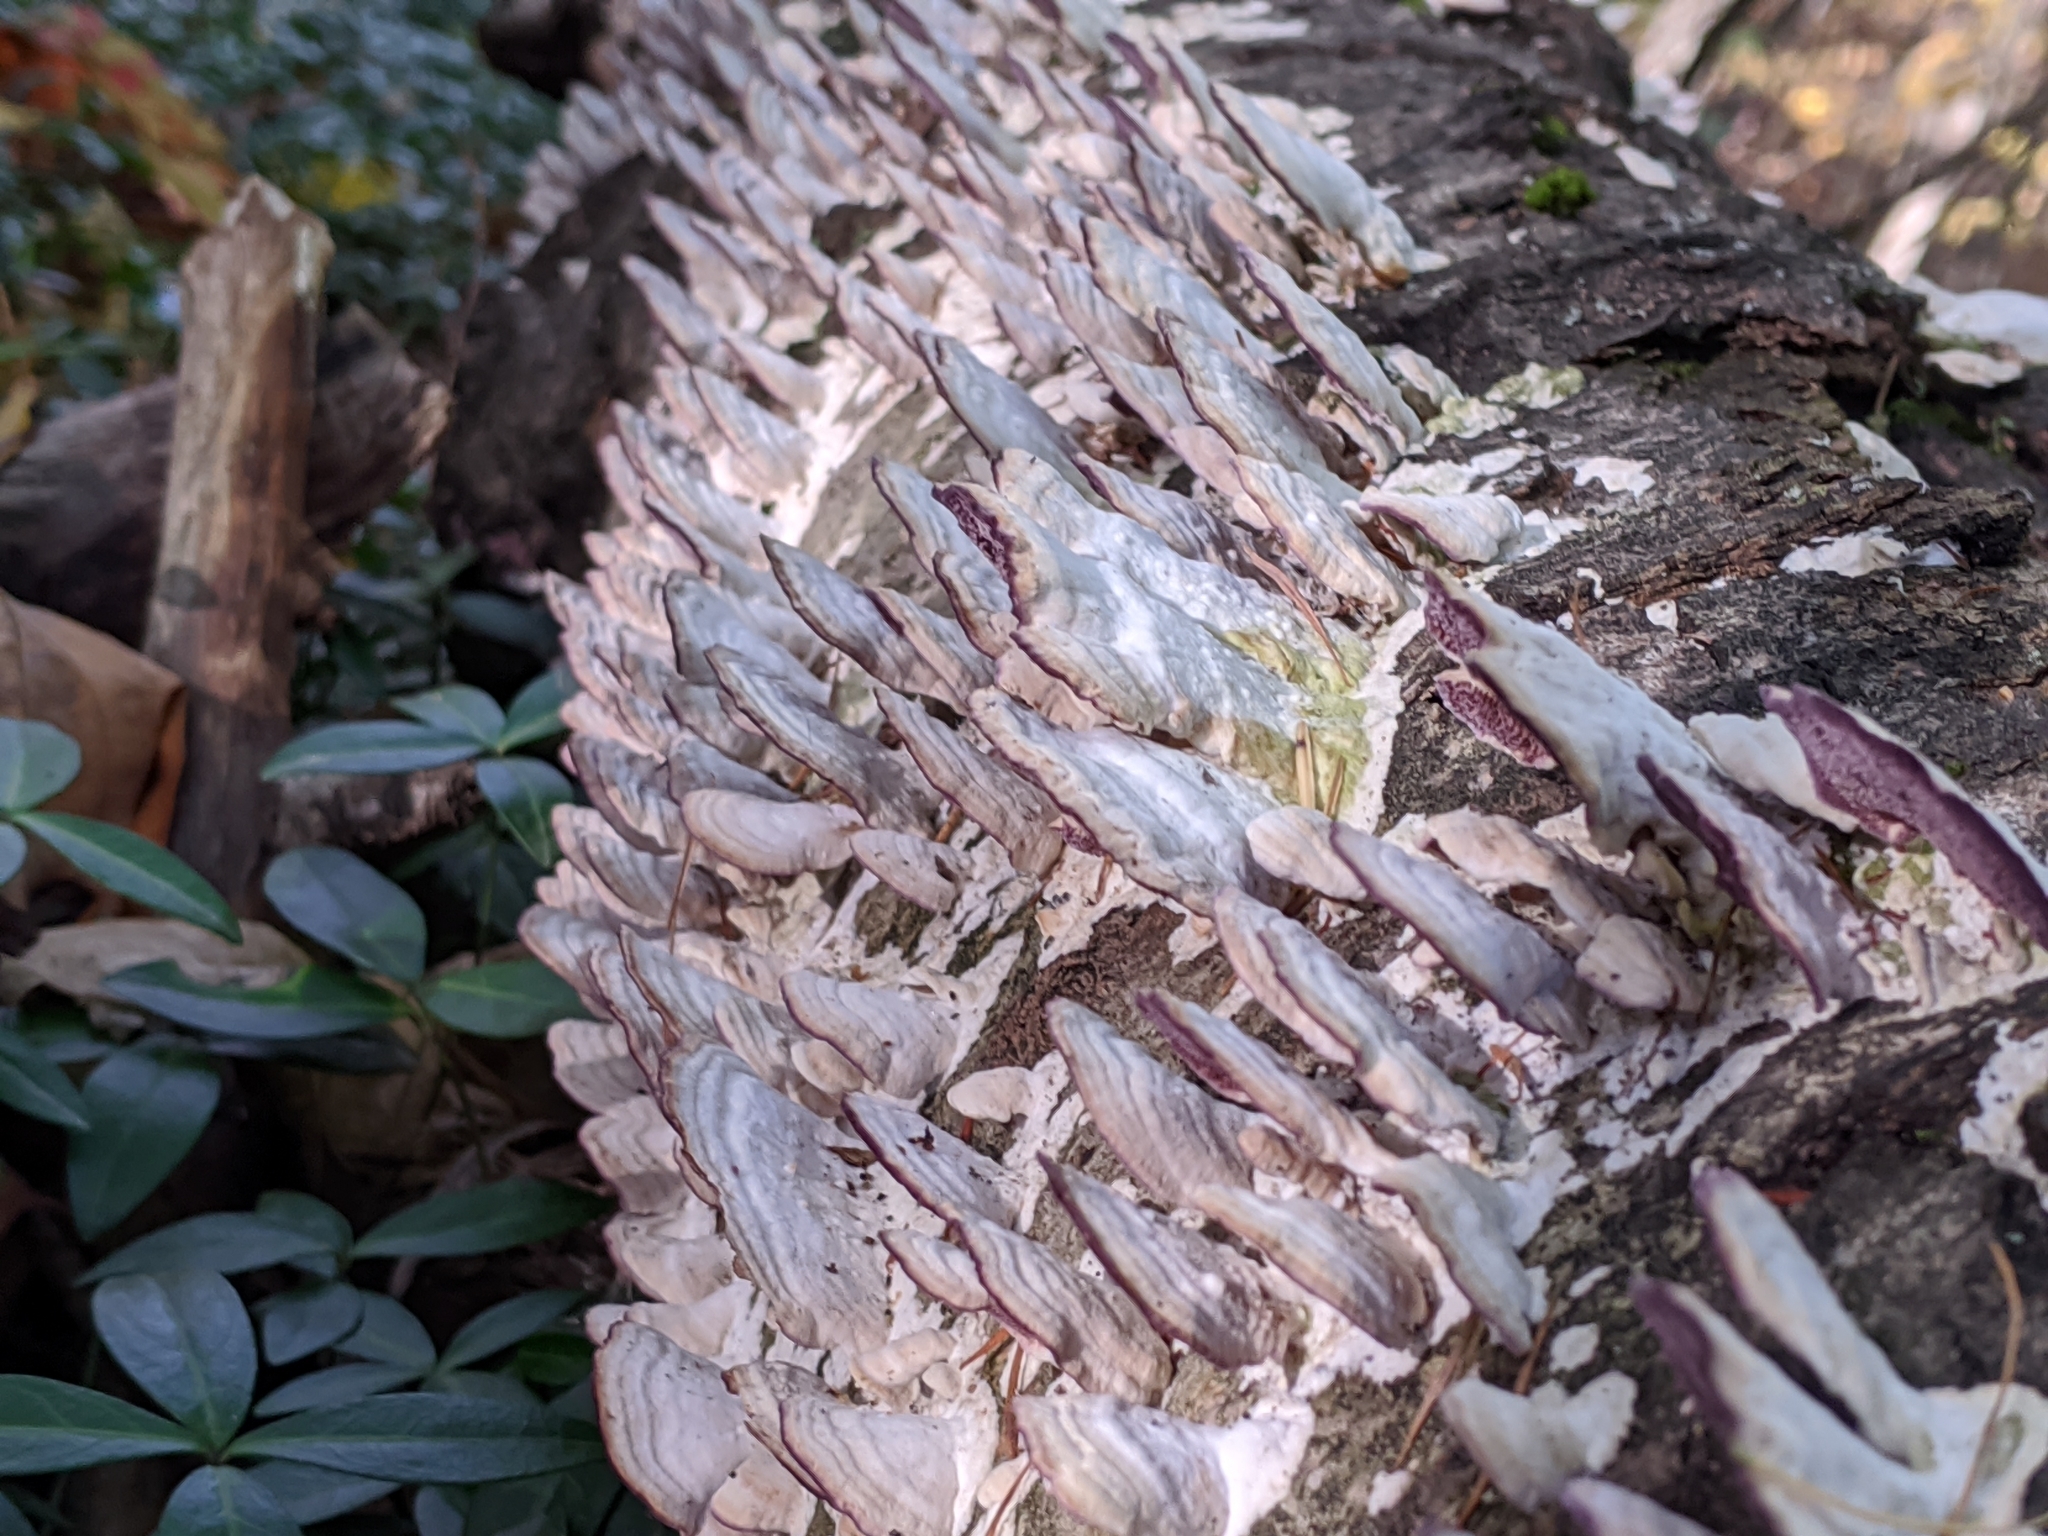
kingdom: Fungi
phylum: Basidiomycota
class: Agaricomycetes
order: Hymenochaetales
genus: Trichaptum
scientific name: Trichaptum biforme
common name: Violet-toothed polypore
